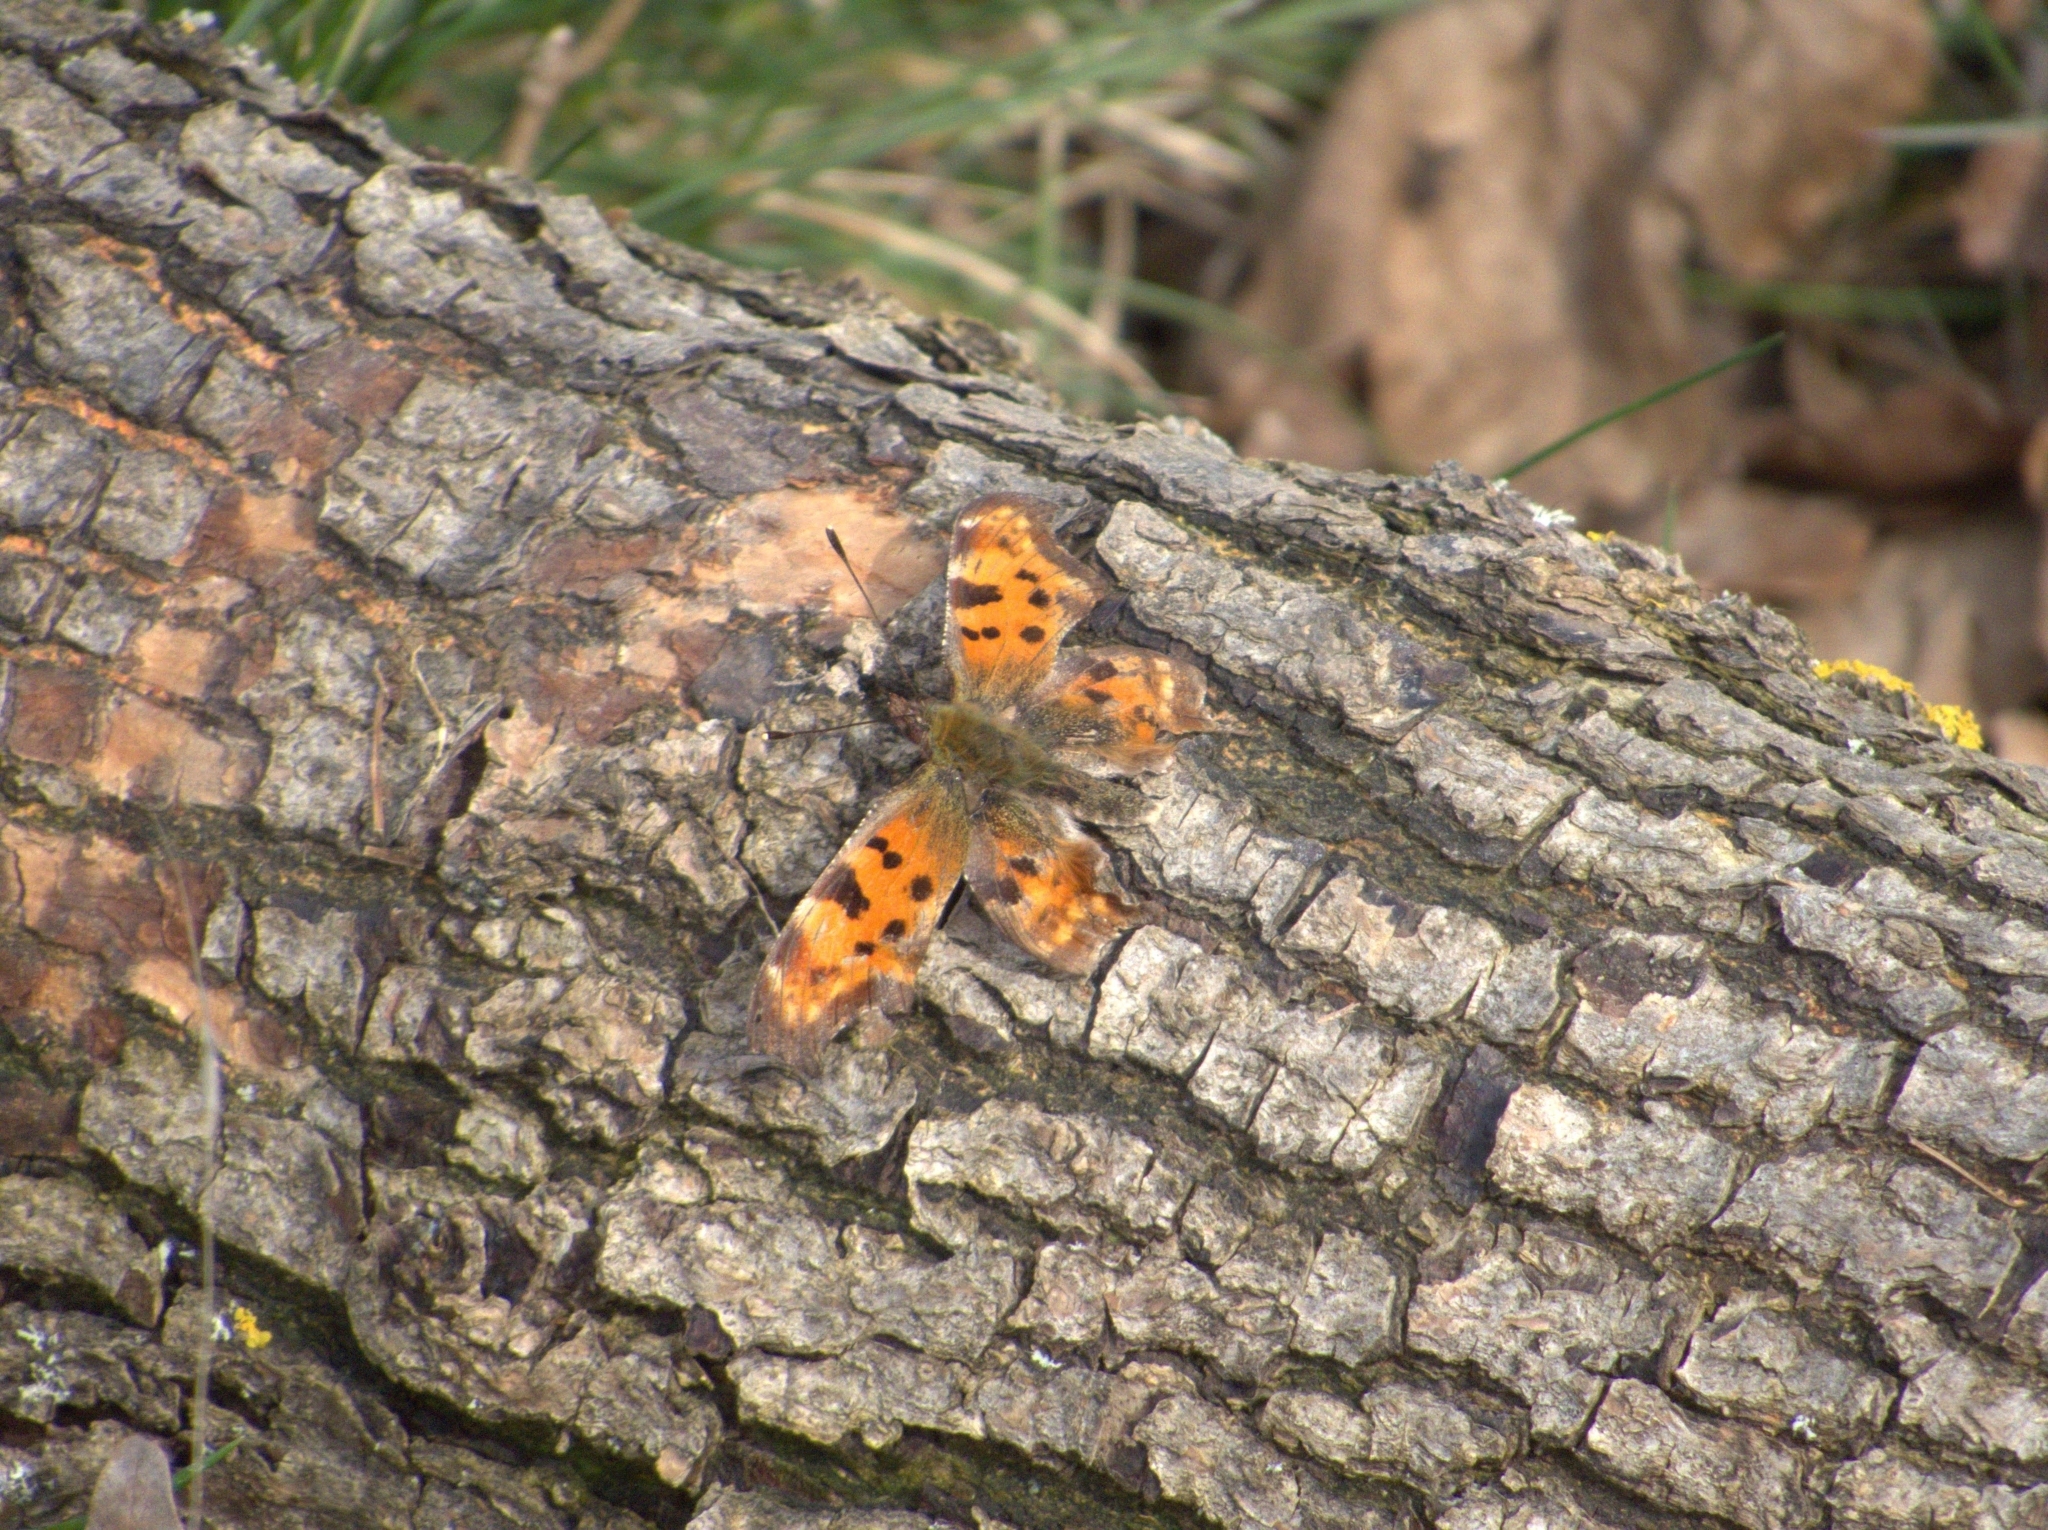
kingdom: Animalia
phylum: Arthropoda
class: Insecta
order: Lepidoptera
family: Nymphalidae
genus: Polygonia
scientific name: Polygonia c-album
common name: Comma
